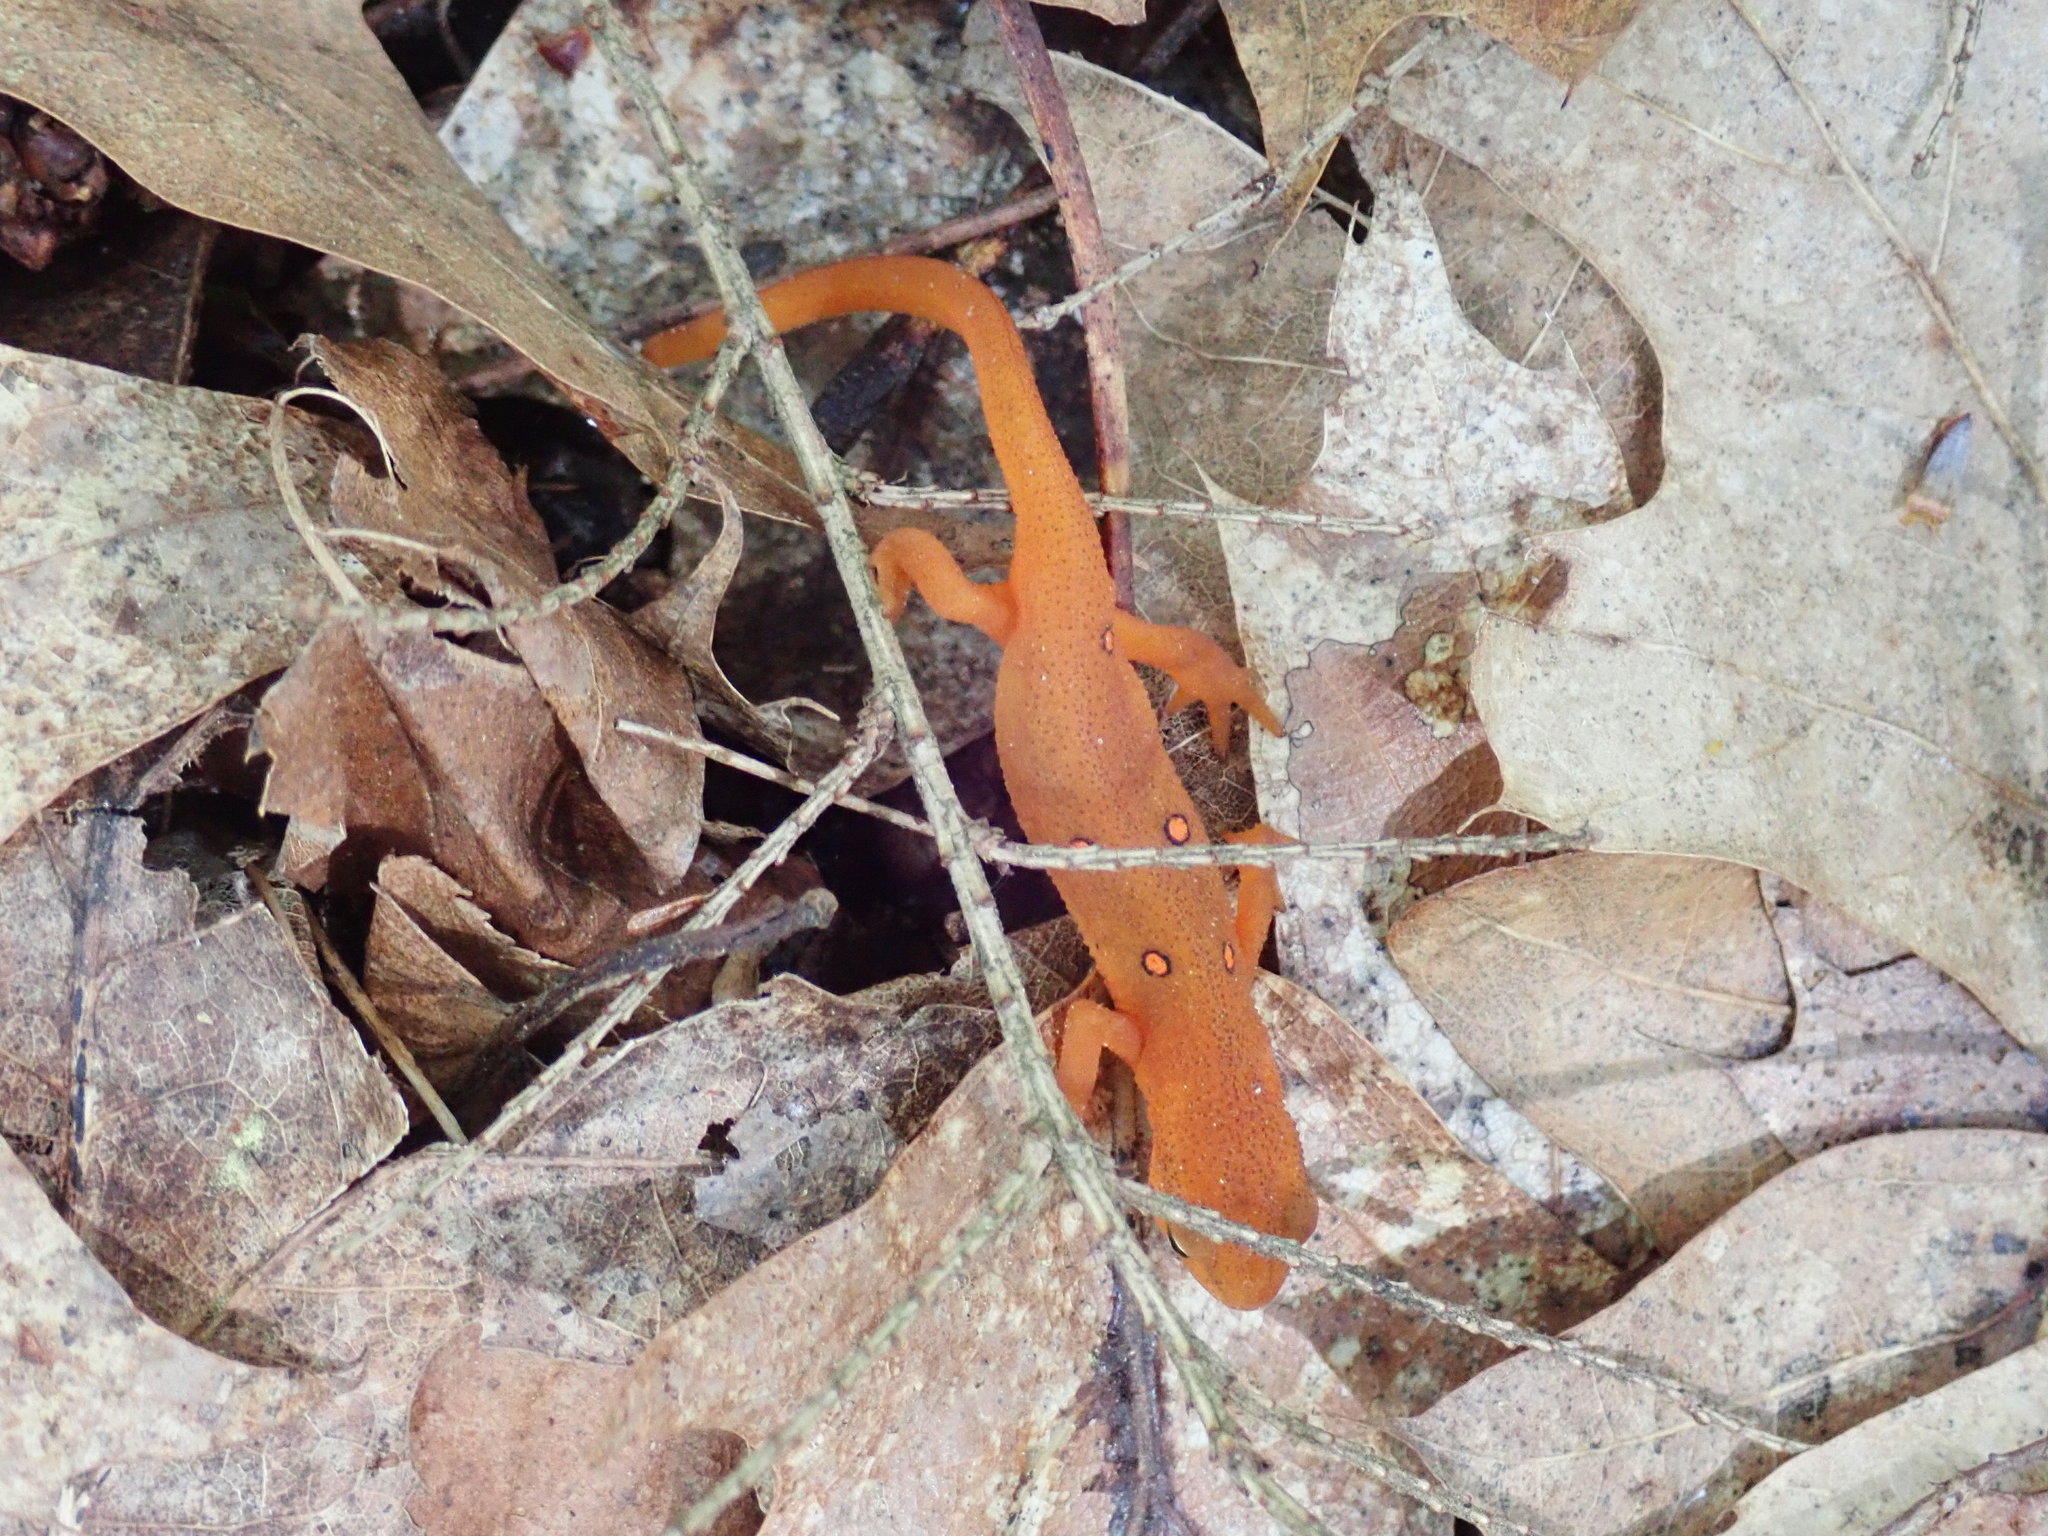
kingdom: Animalia
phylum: Chordata
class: Amphibia
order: Caudata
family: Salamandridae
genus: Notophthalmus
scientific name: Notophthalmus viridescens
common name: Eastern newt
